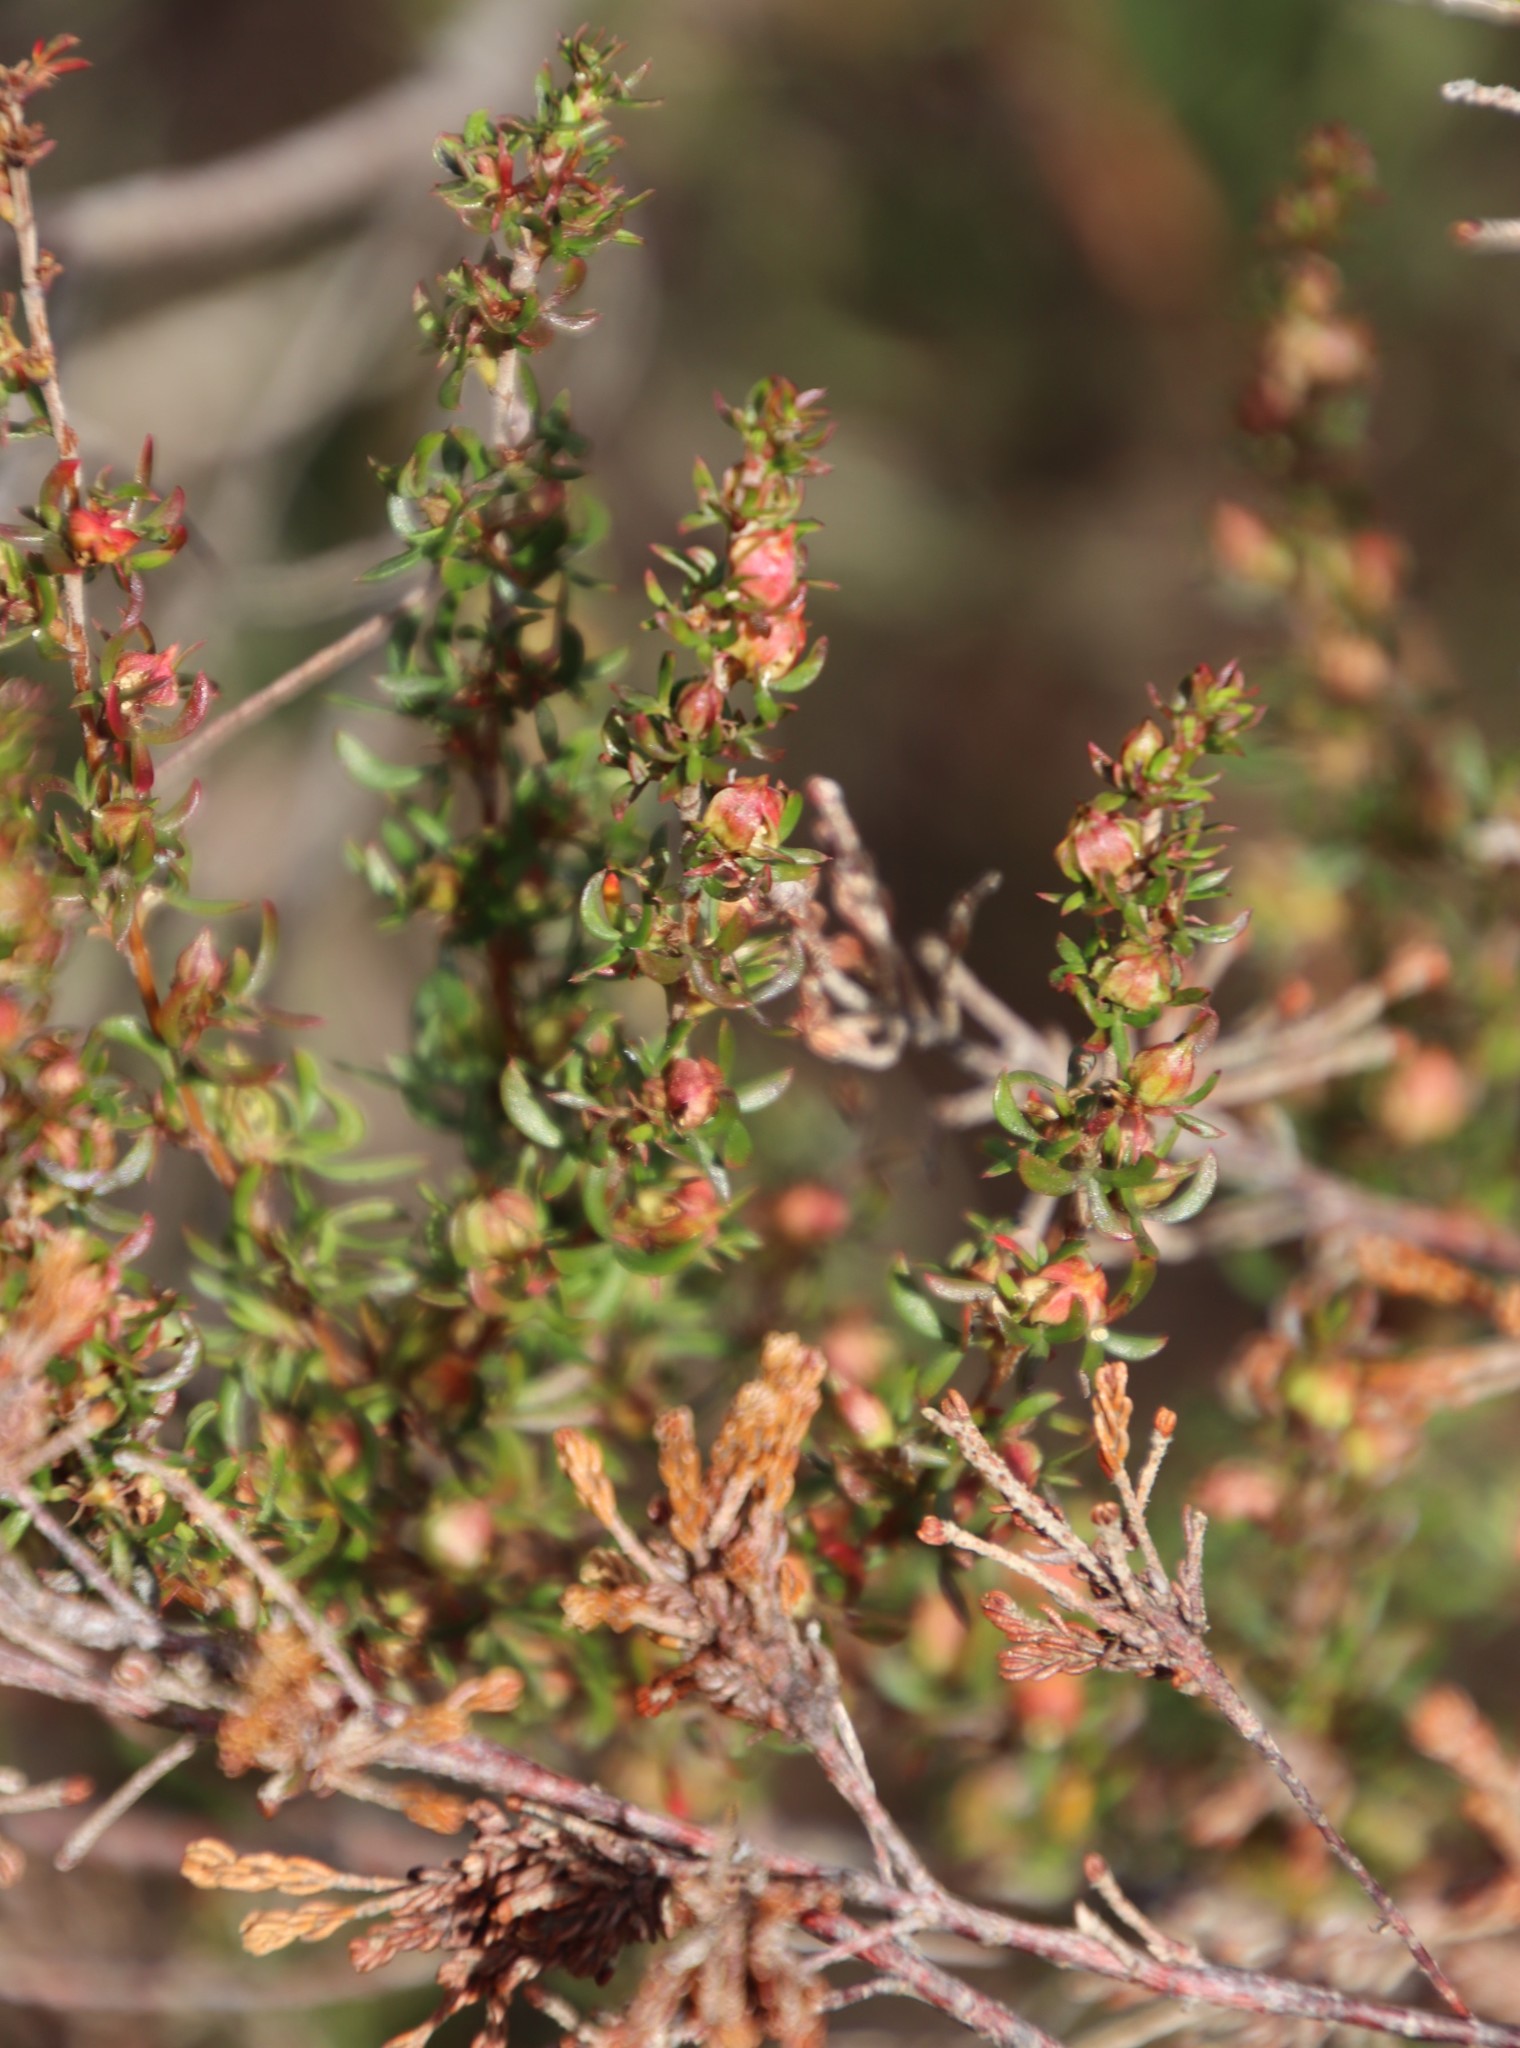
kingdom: Plantae
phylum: Tracheophyta
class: Magnoliopsida
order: Rosales
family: Rosaceae
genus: Cliffortia
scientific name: Cliffortia falcata
